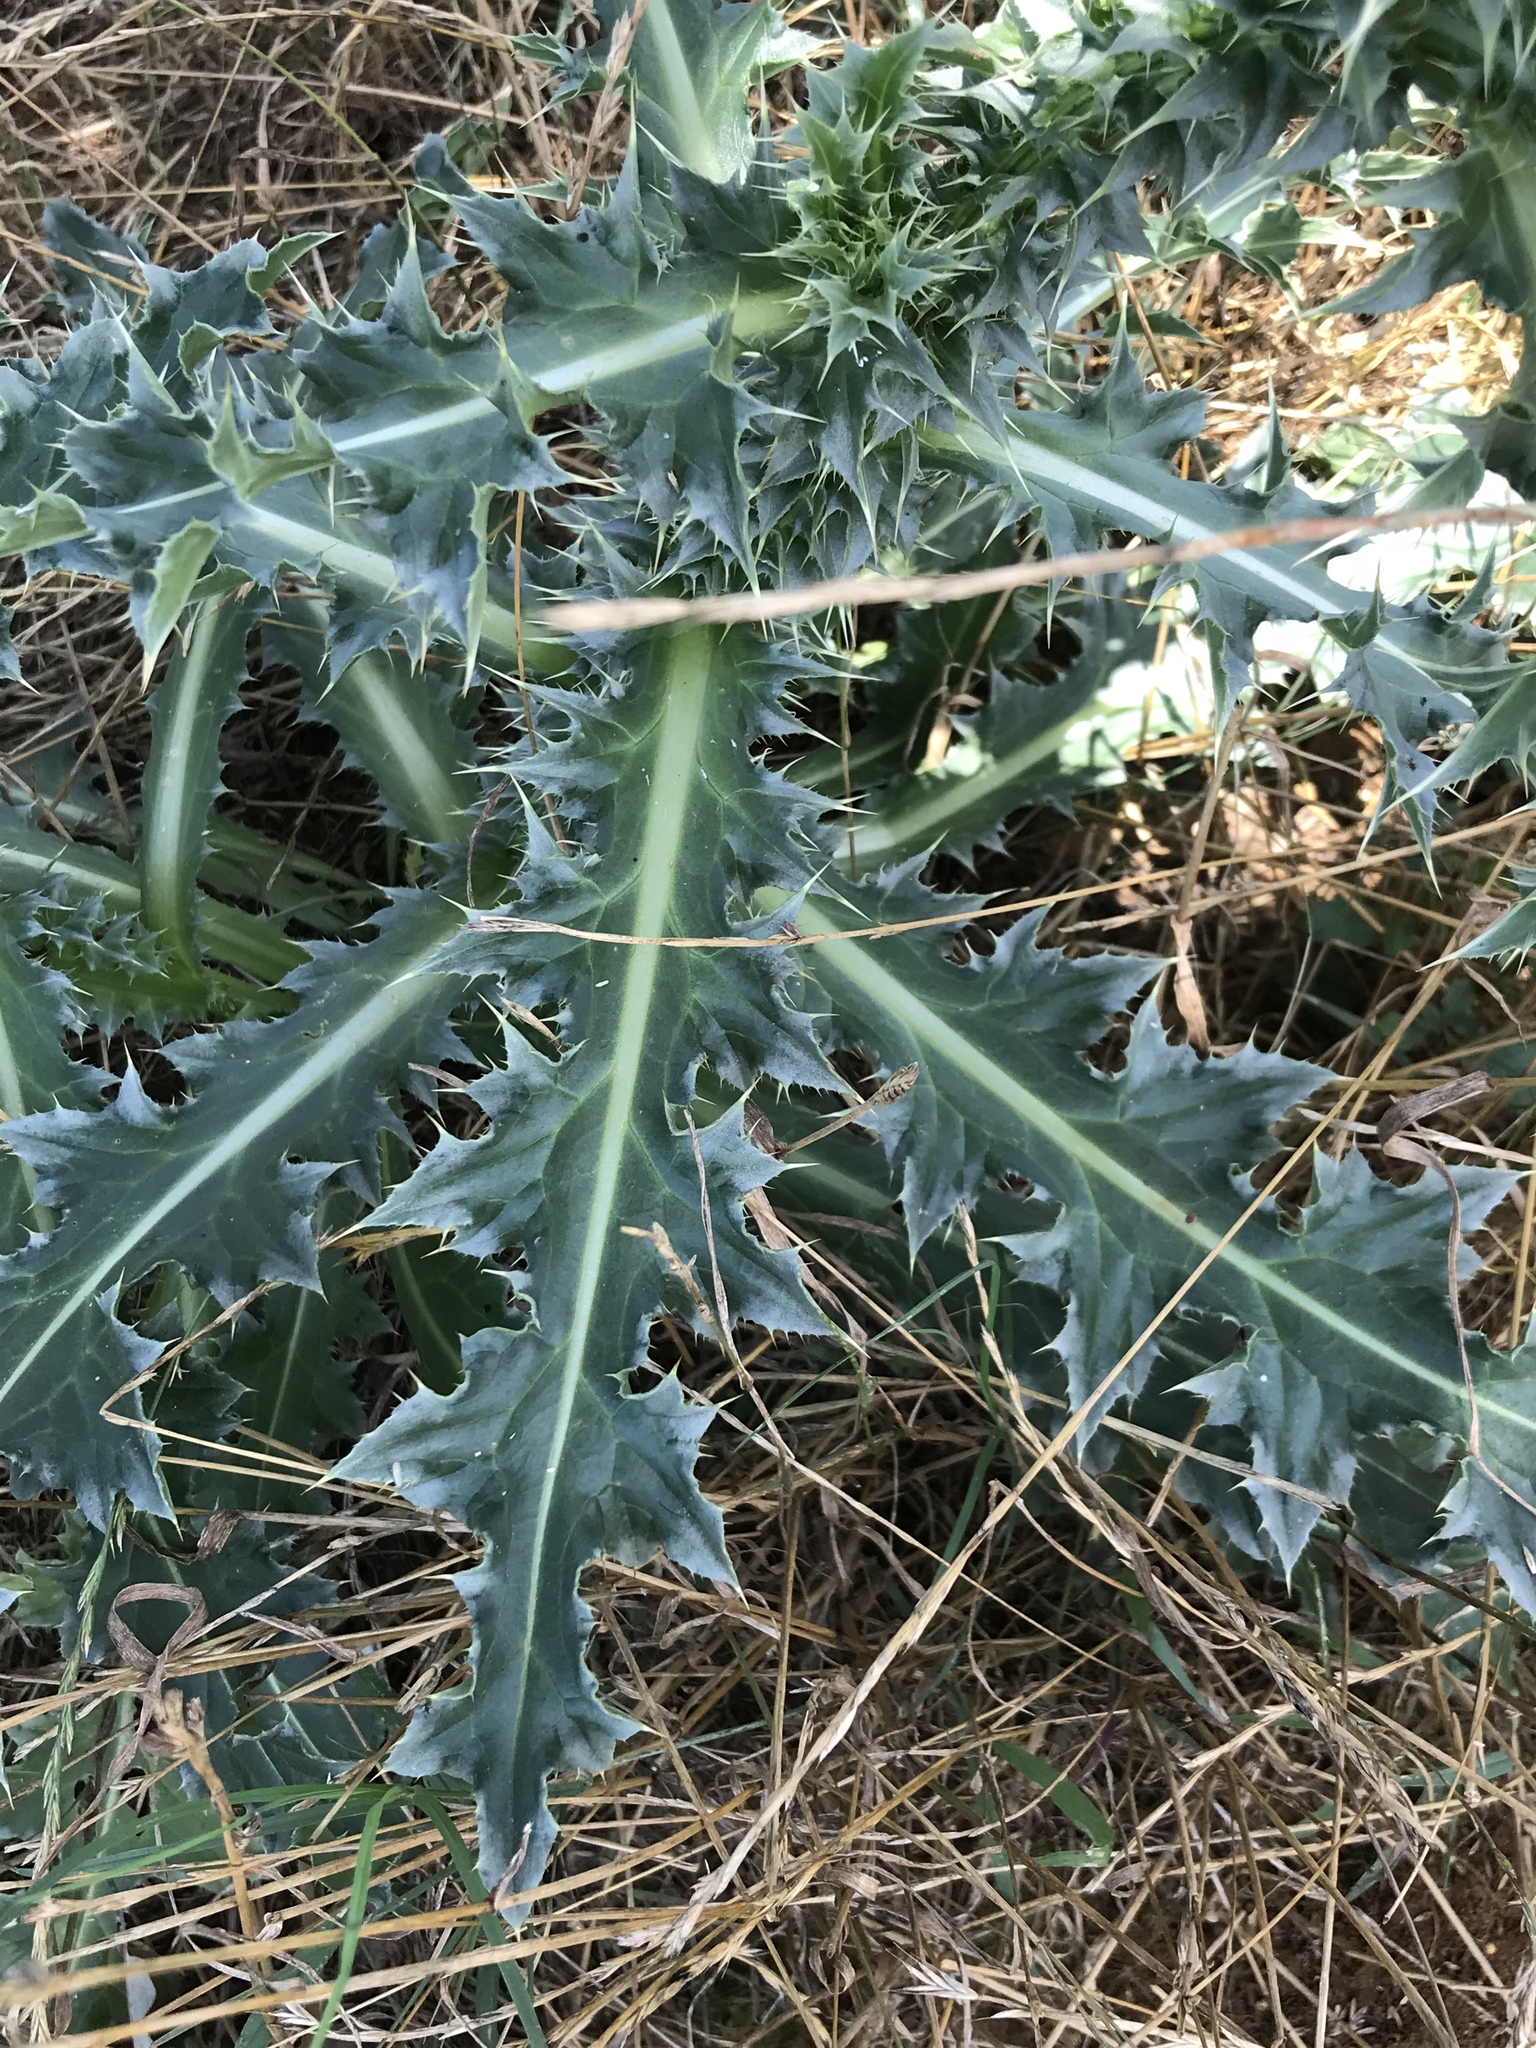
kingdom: Plantae
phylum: Tracheophyta
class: Magnoliopsida
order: Asterales
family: Asteraceae
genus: Carduus
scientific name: Carduus nutans
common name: Musk thistle
